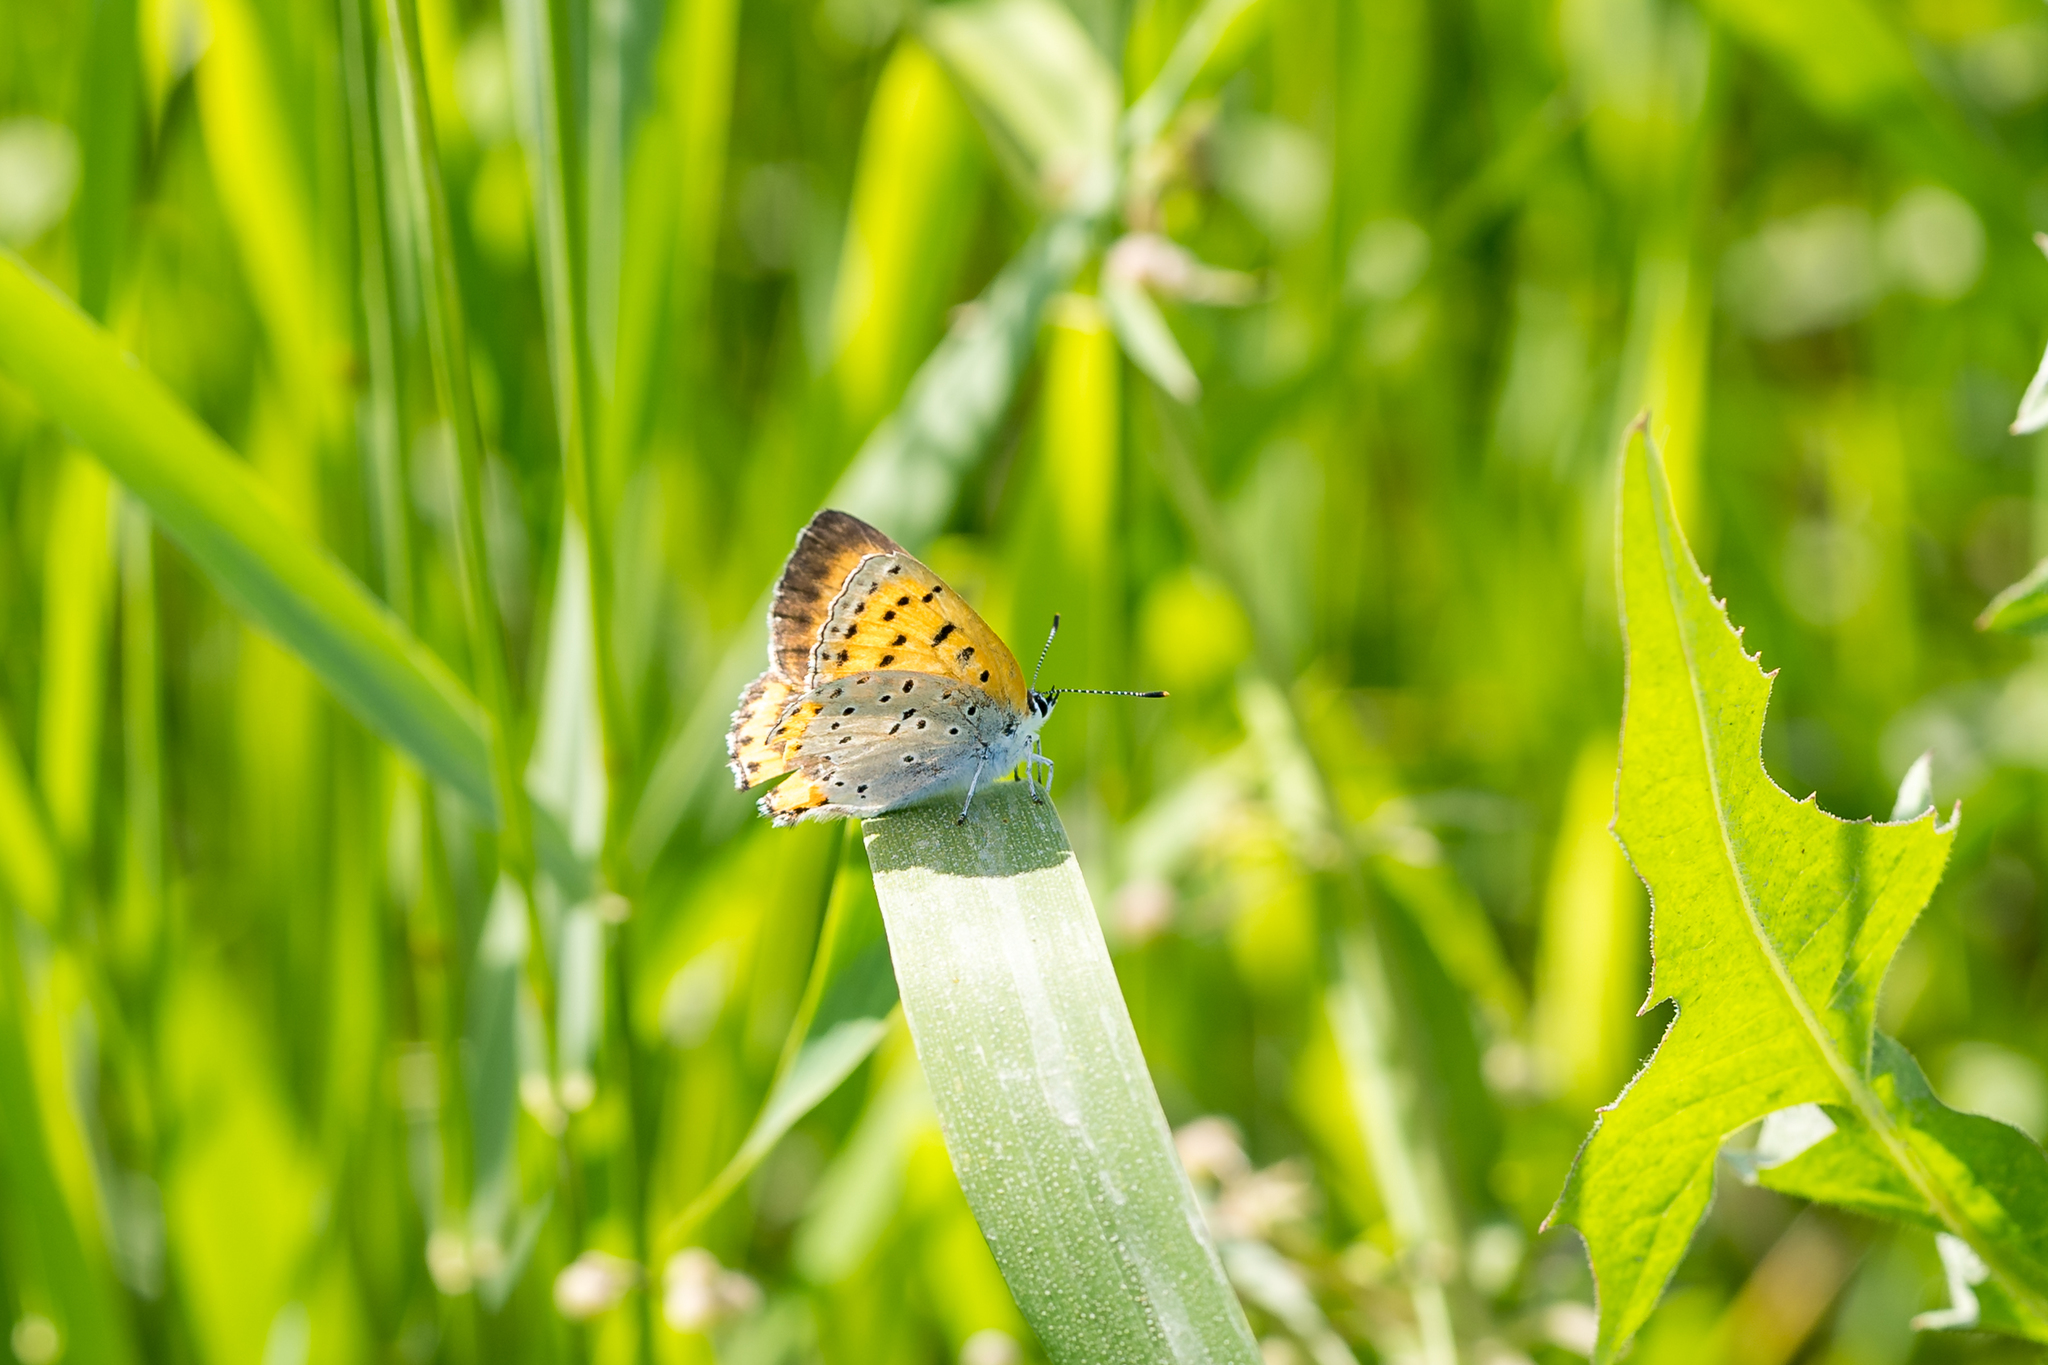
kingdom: Animalia
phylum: Arthropoda
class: Insecta
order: Lepidoptera
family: Lycaenidae
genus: Tharsalea
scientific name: Tharsalea hyllus
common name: Bronze copper
